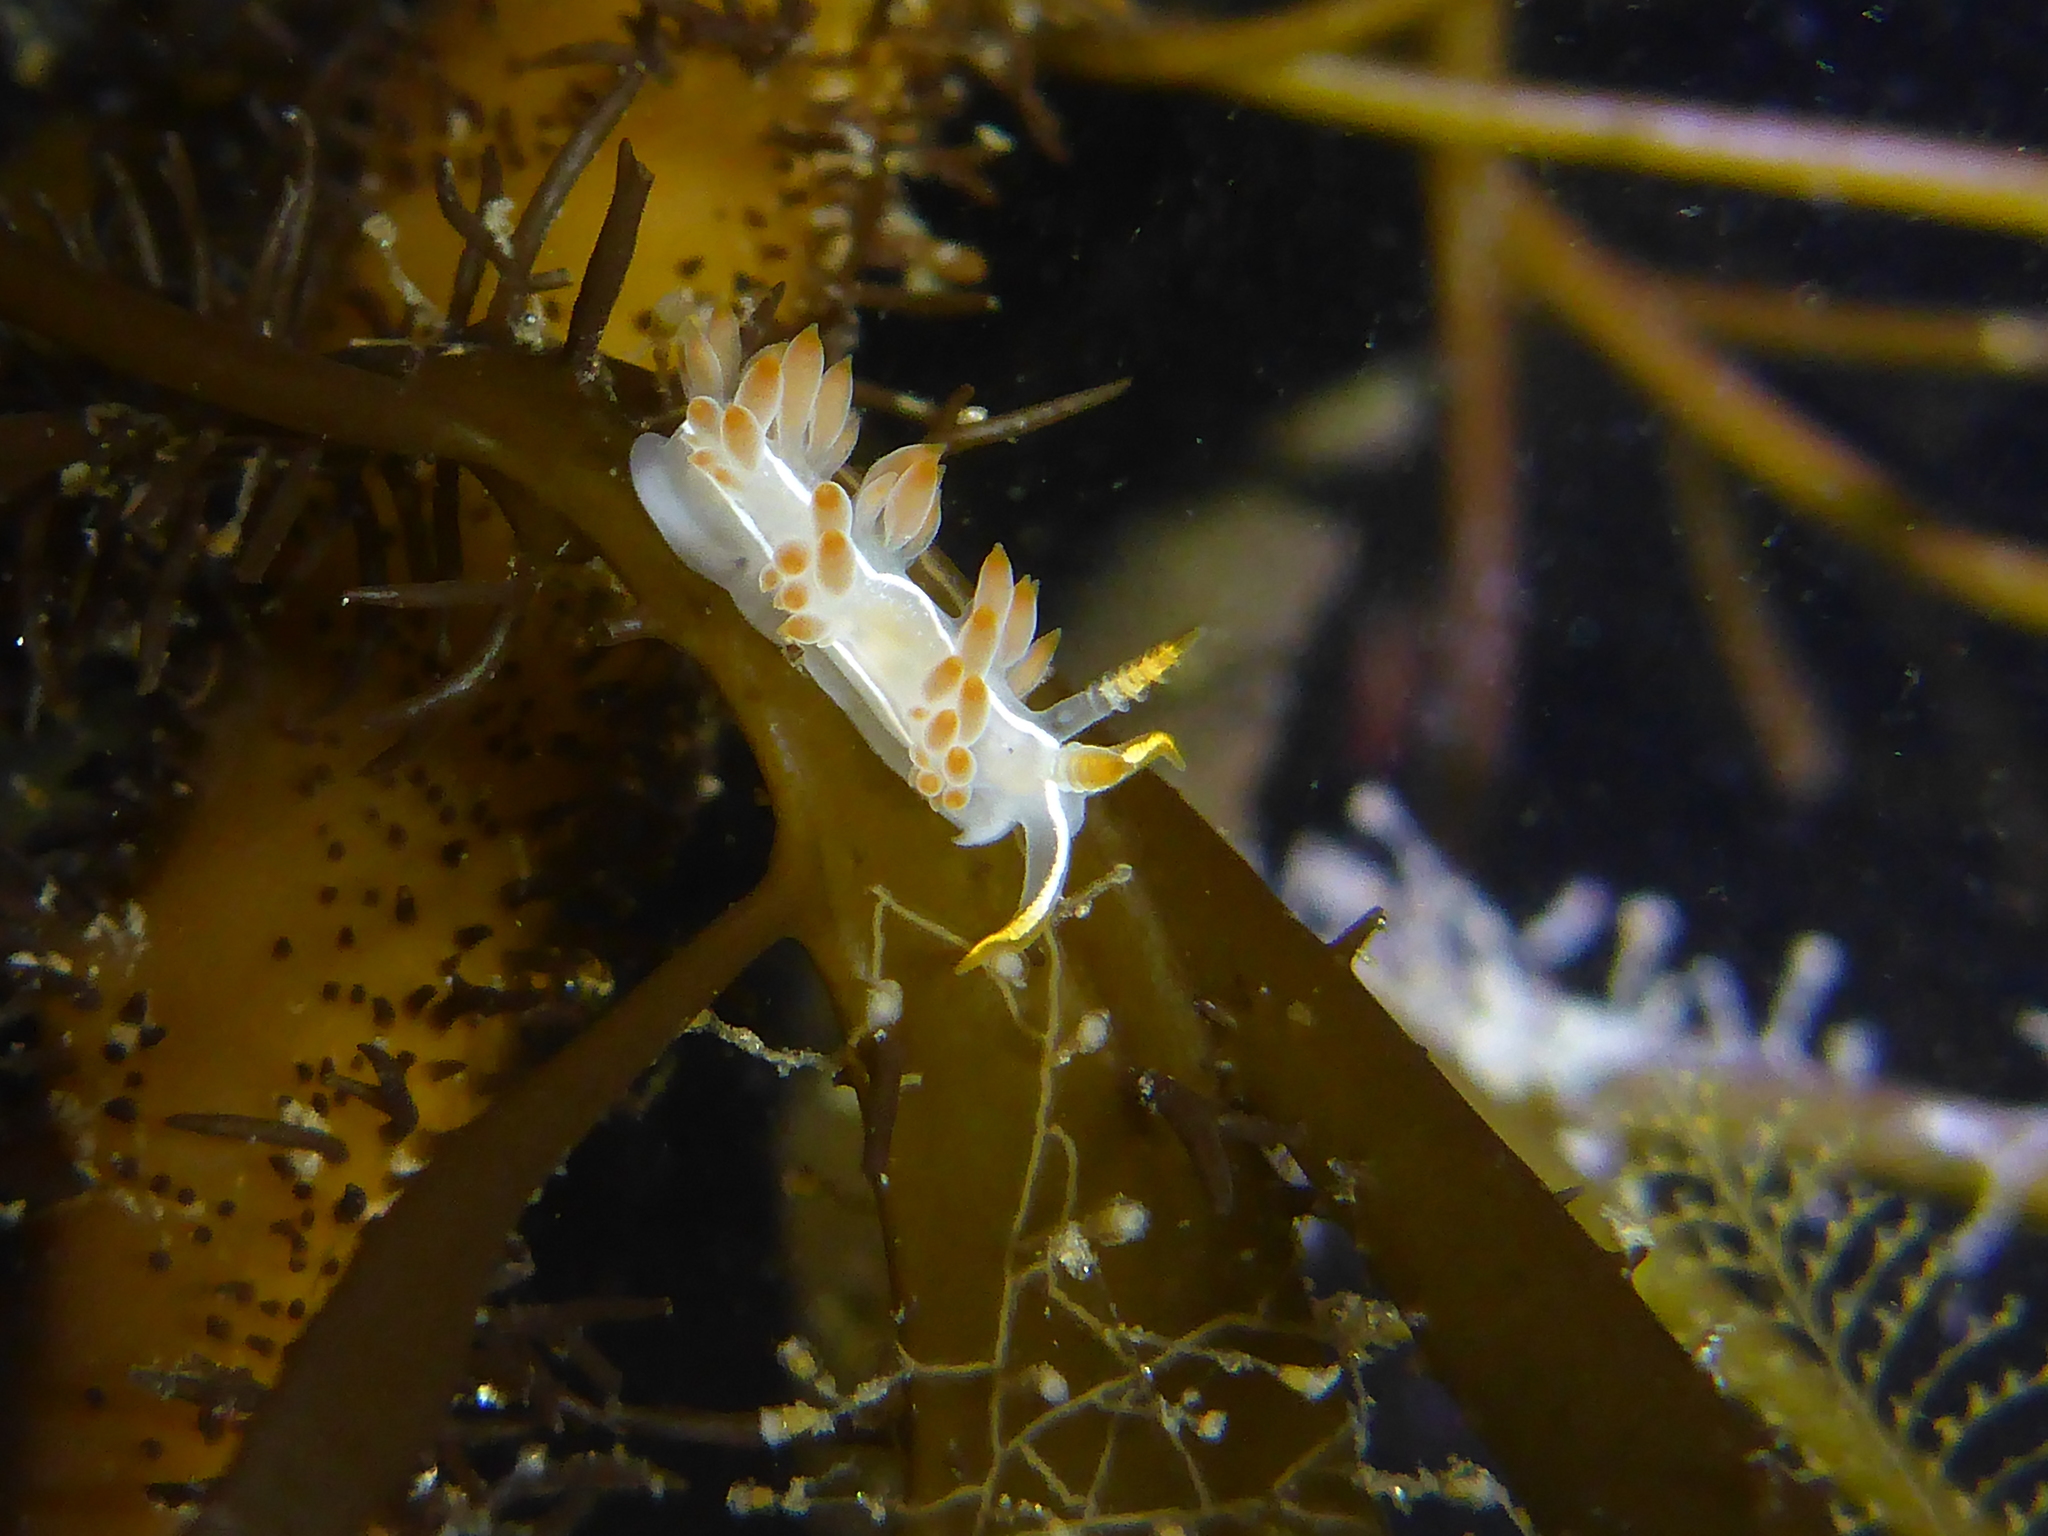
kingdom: Animalia
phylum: Mollusca
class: Gastropoda
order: Nudibranchia
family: Coryphellidae
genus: Coryphella
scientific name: Coryphella trilineata
